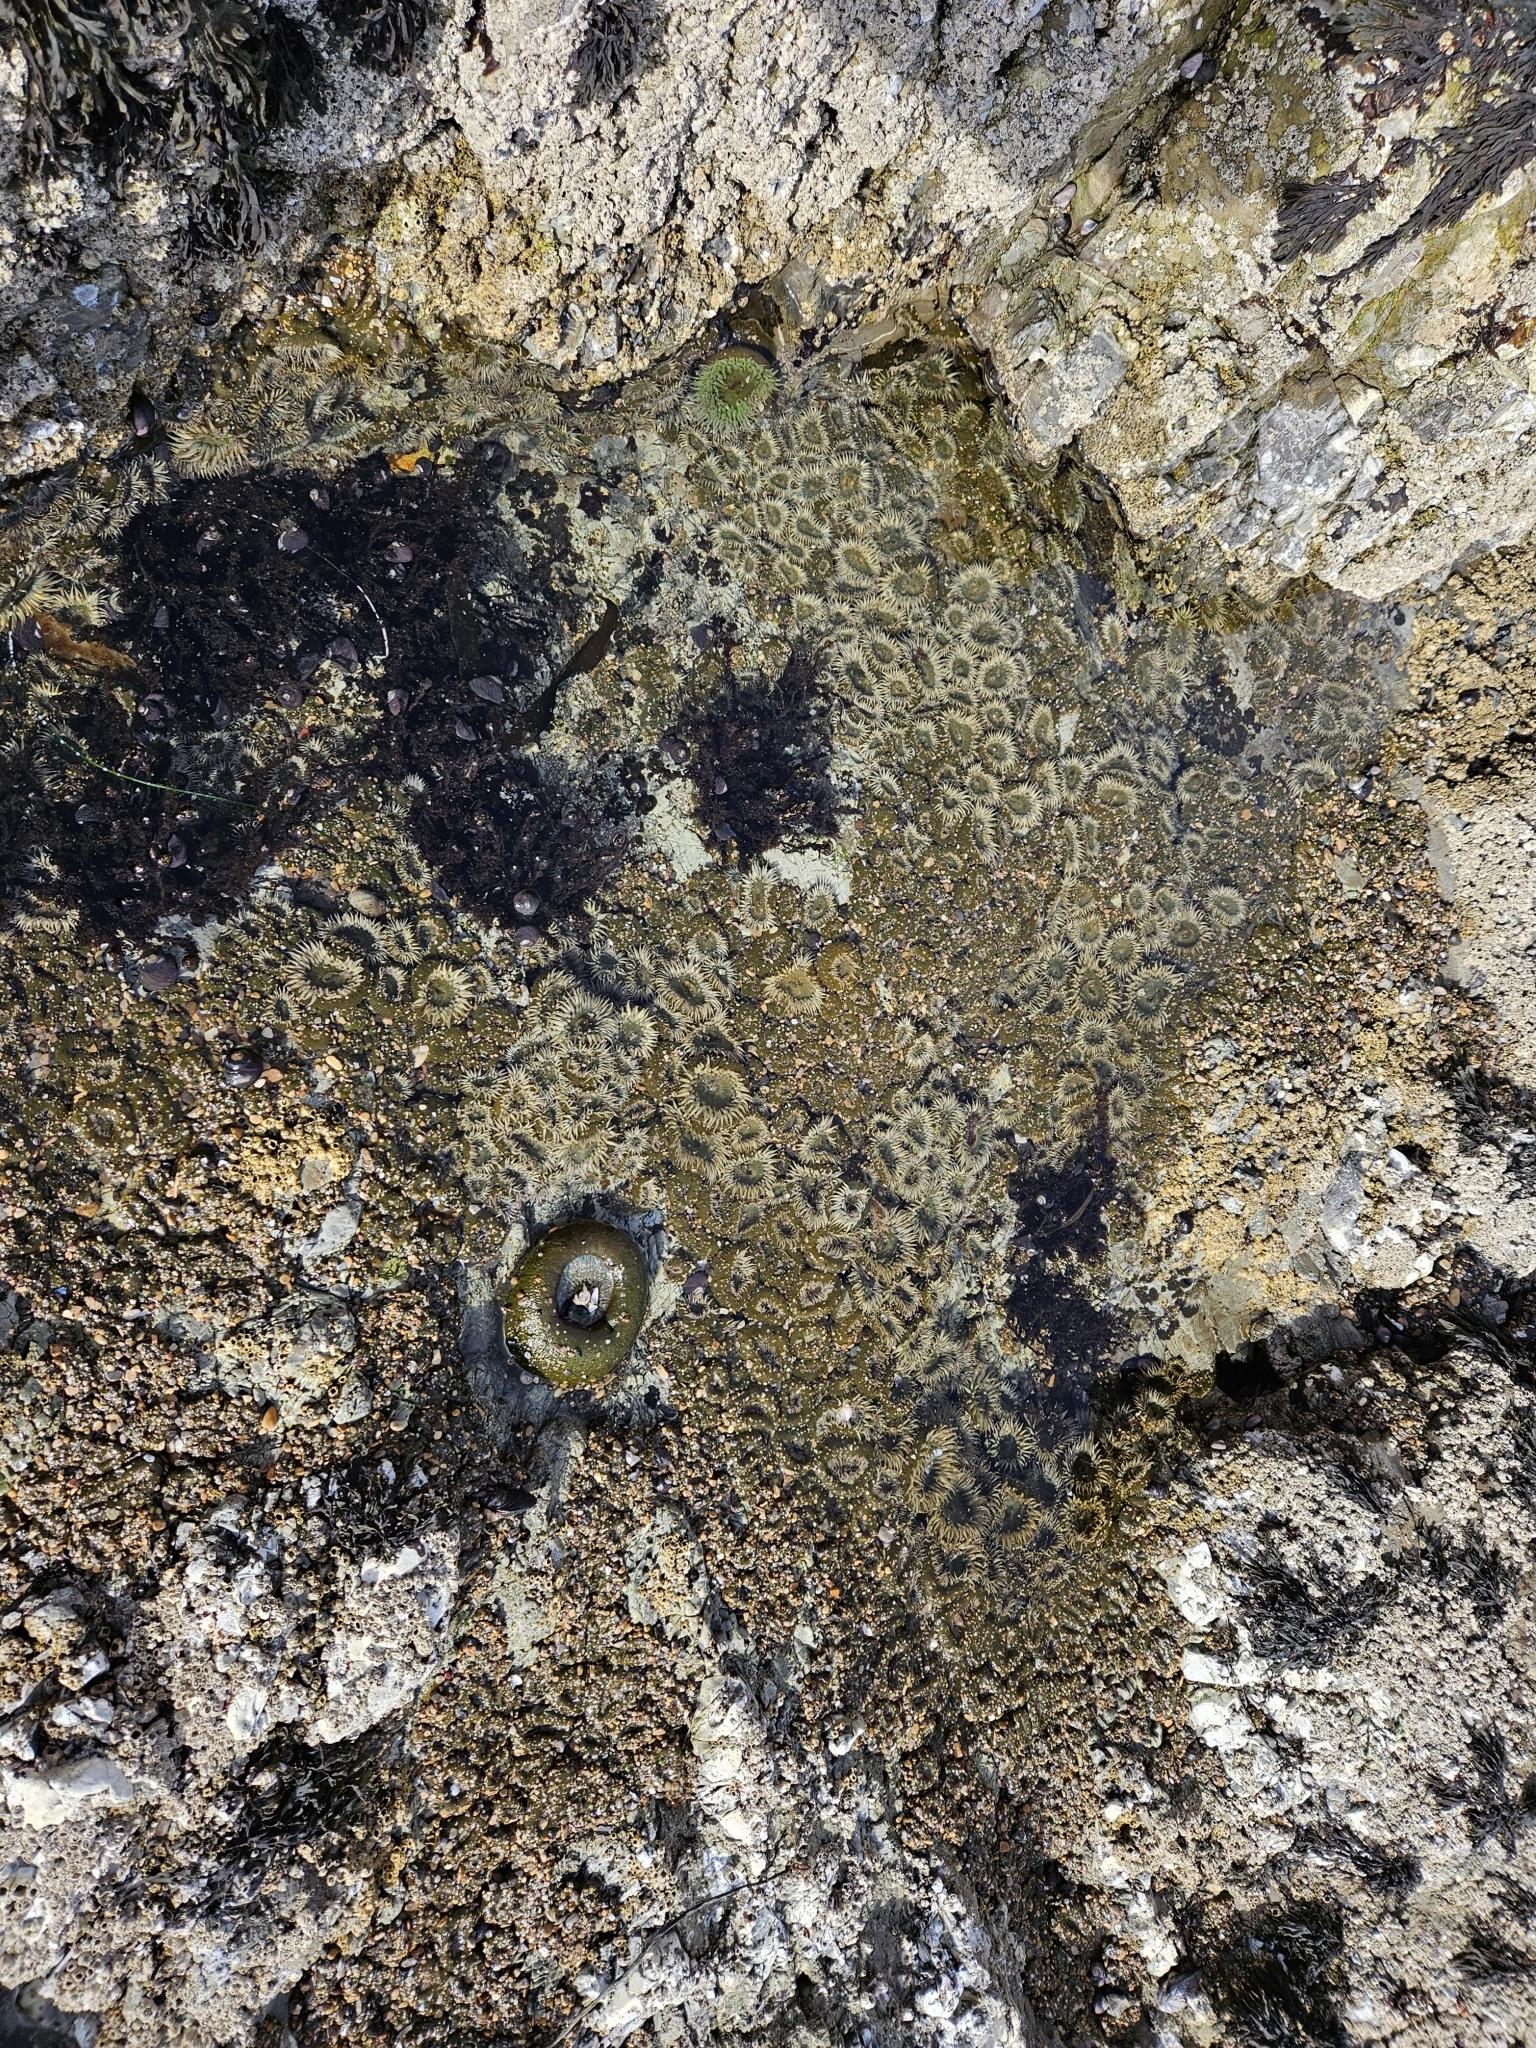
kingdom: Animalia
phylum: Cnidaria
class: Anthozoa
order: Actiniaria
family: Actiniidae
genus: Anthopleura
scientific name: Anthopleura elegantissima
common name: Clonal anemone
